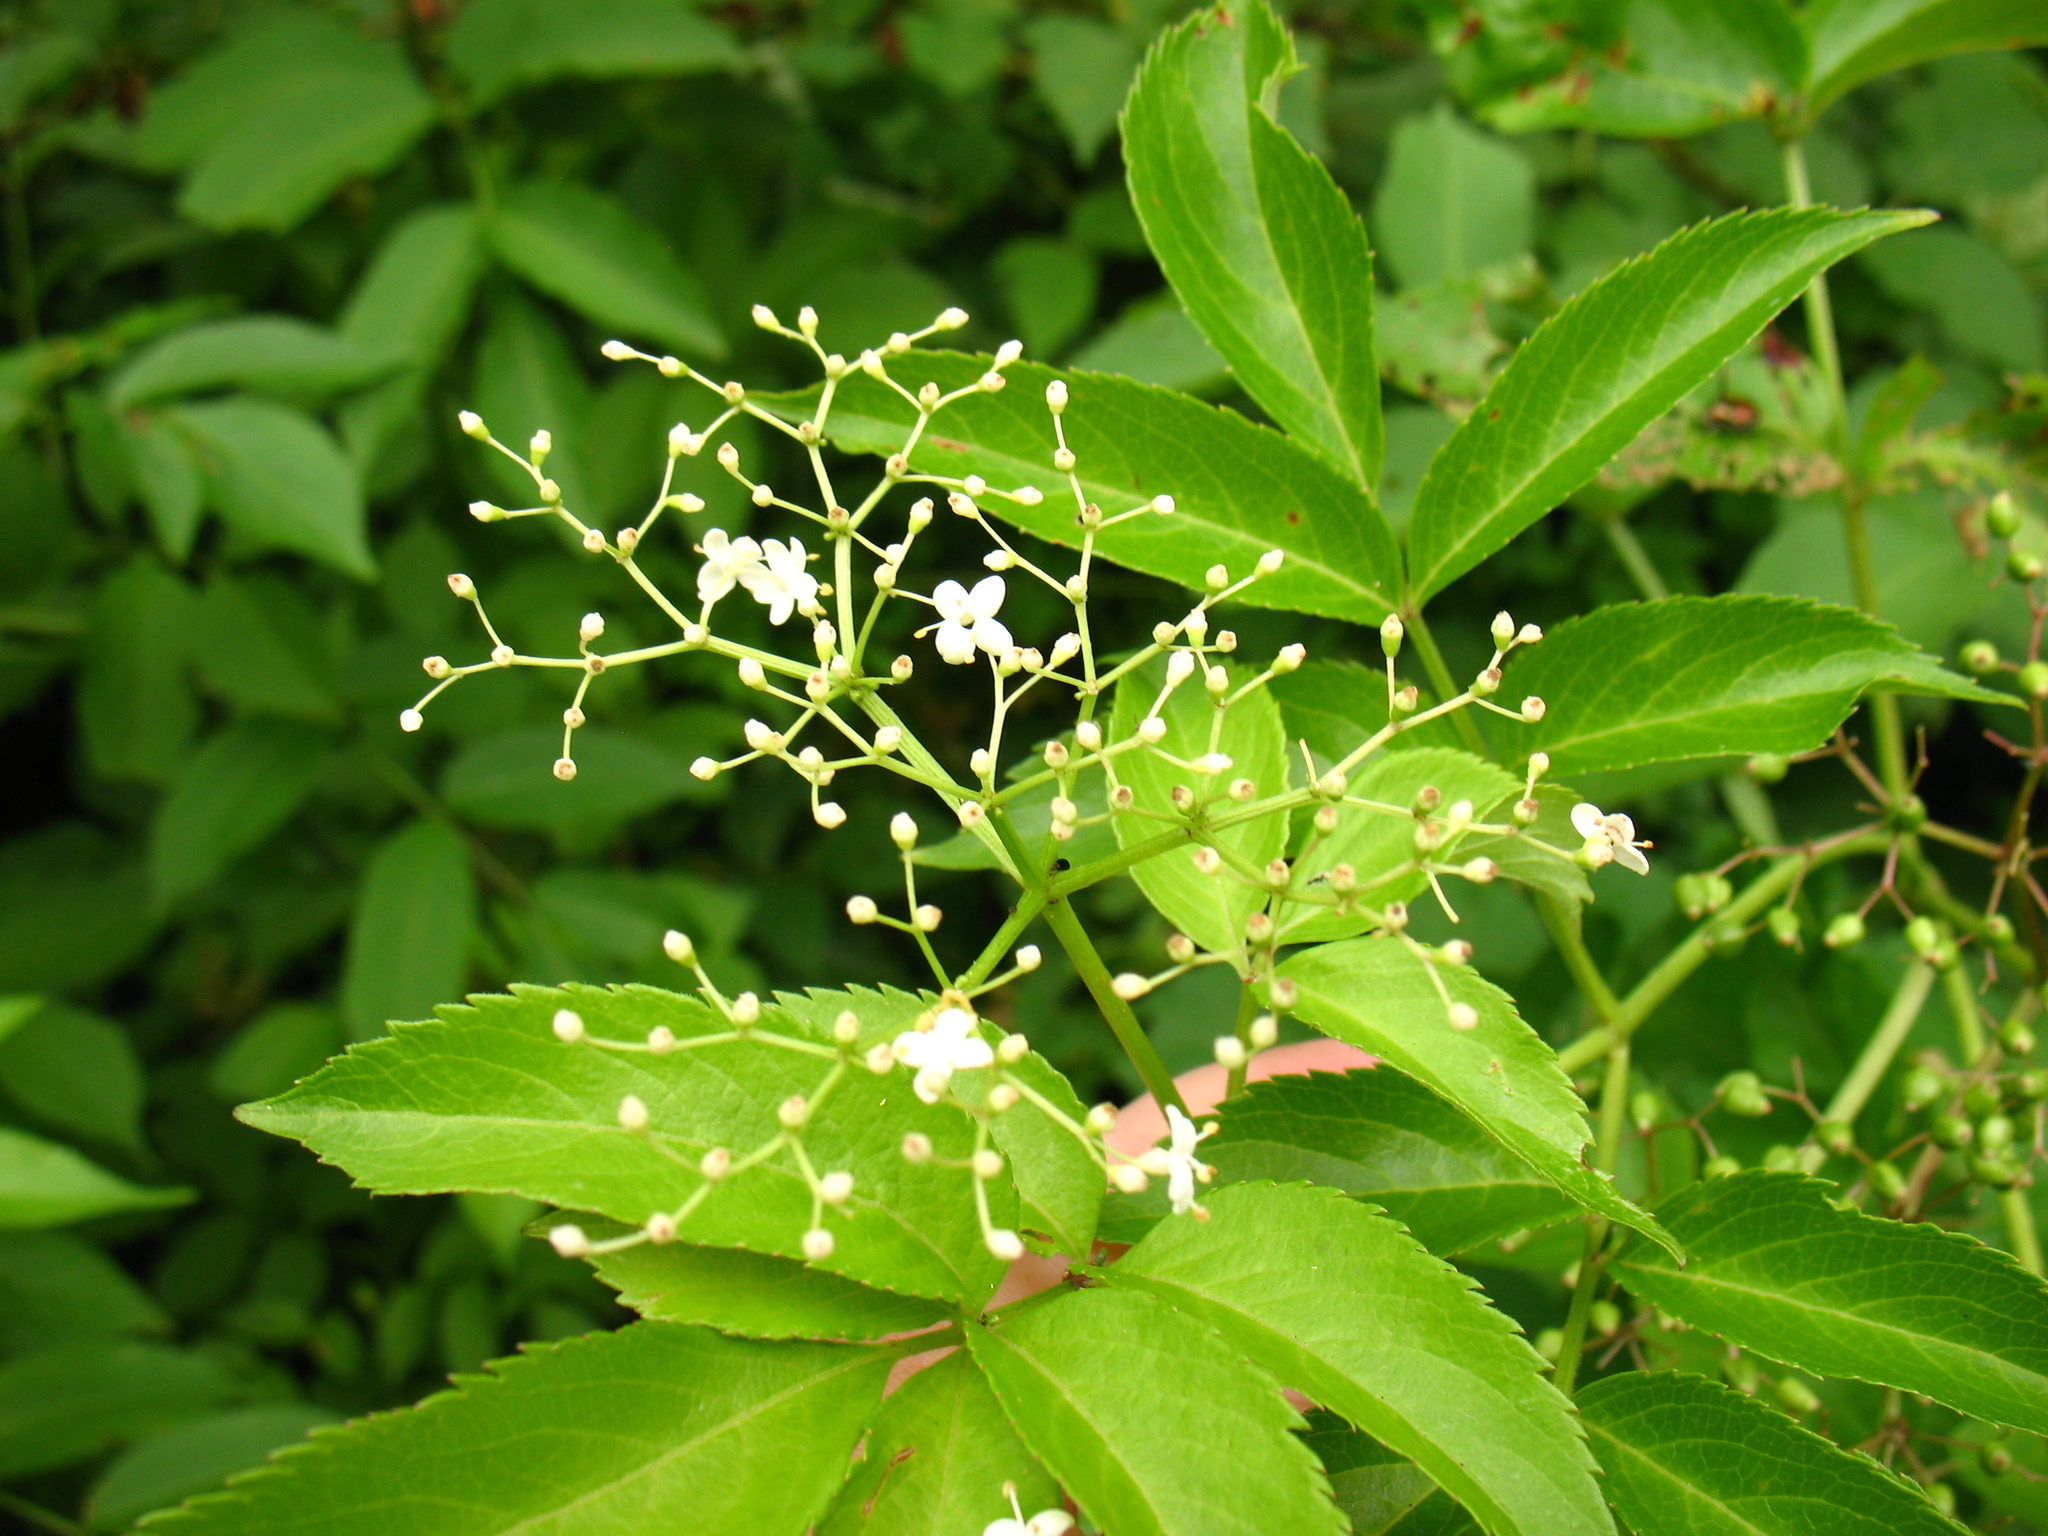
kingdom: Plantae
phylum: Tracheophyta
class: Magnoliopsida
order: Dipsacales
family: Viburnaceae
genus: Sambucus
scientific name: Sambucus canadensis
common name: American elder
